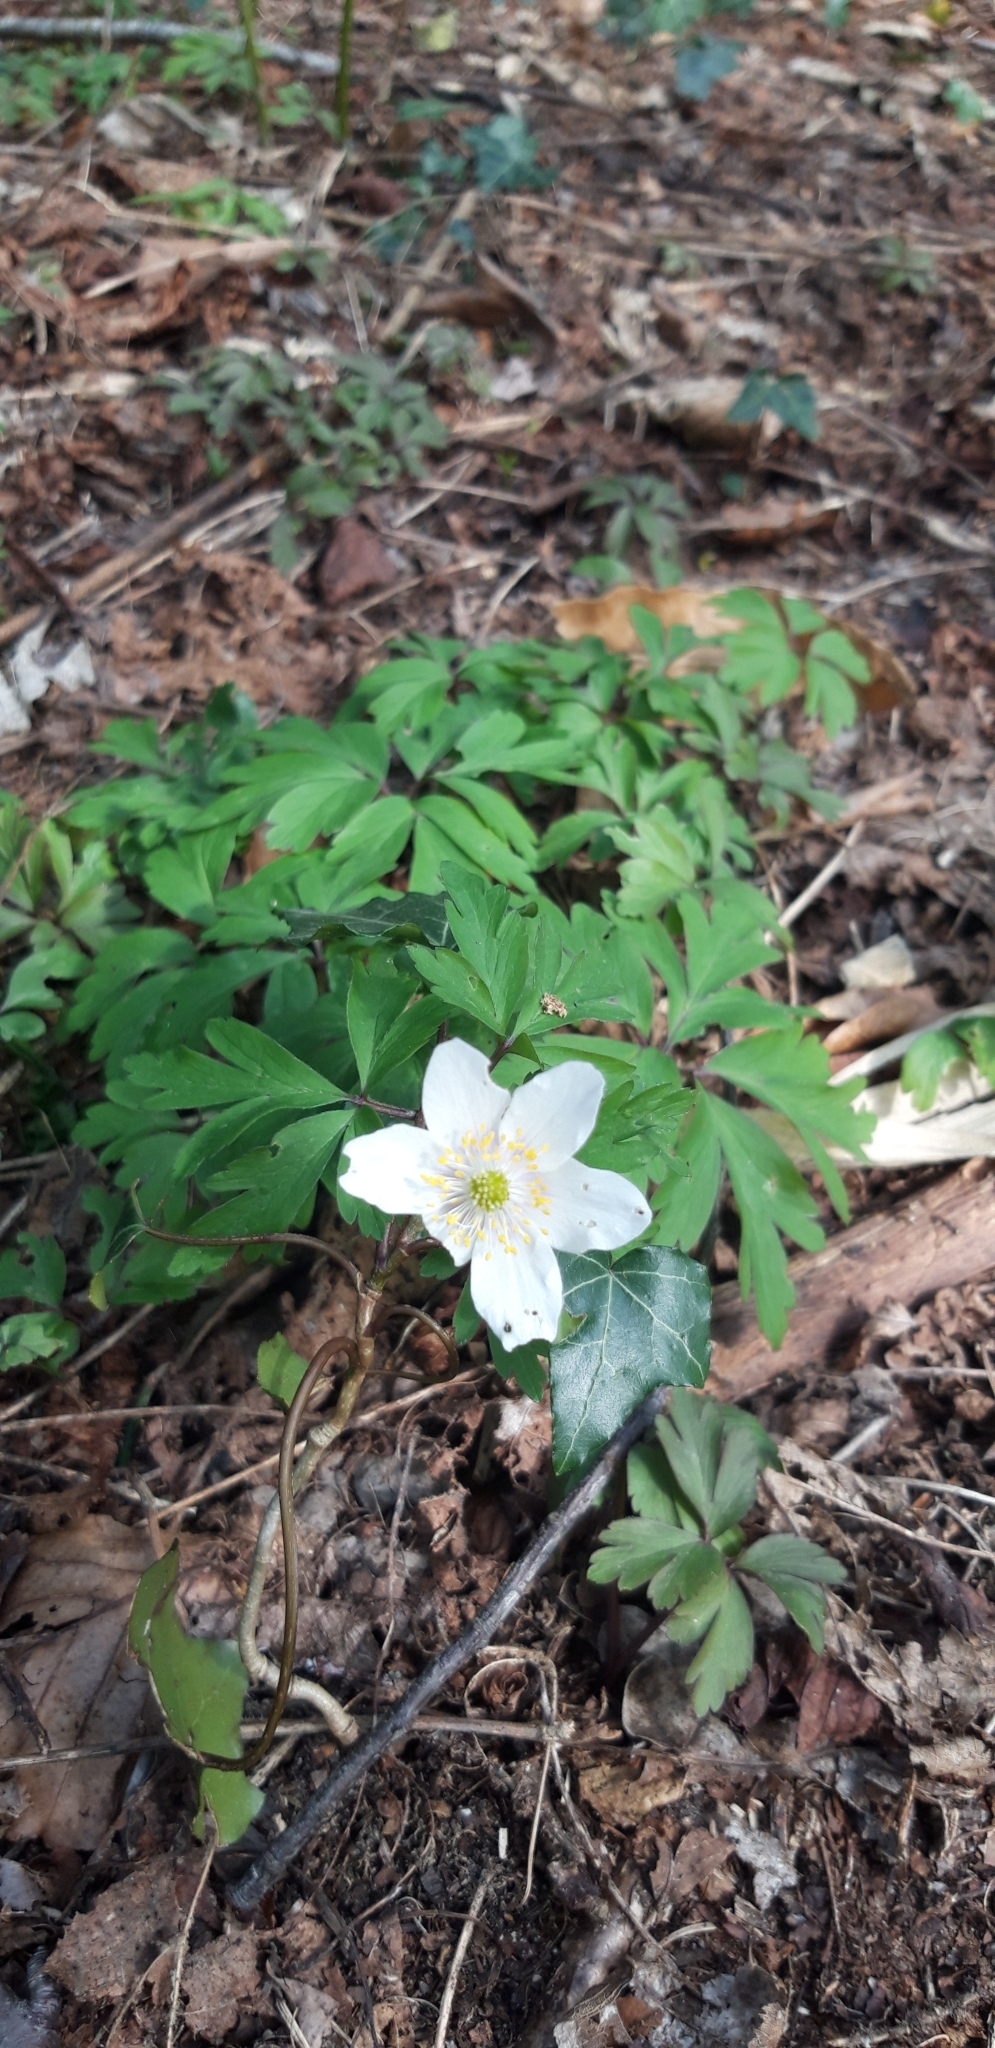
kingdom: Plantae
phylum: Tracheophyta
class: Magnoliopsida
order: Ranunculales
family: Ranunculaceae
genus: Anemone
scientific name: Anemone nemorosa
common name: Wood anemone
